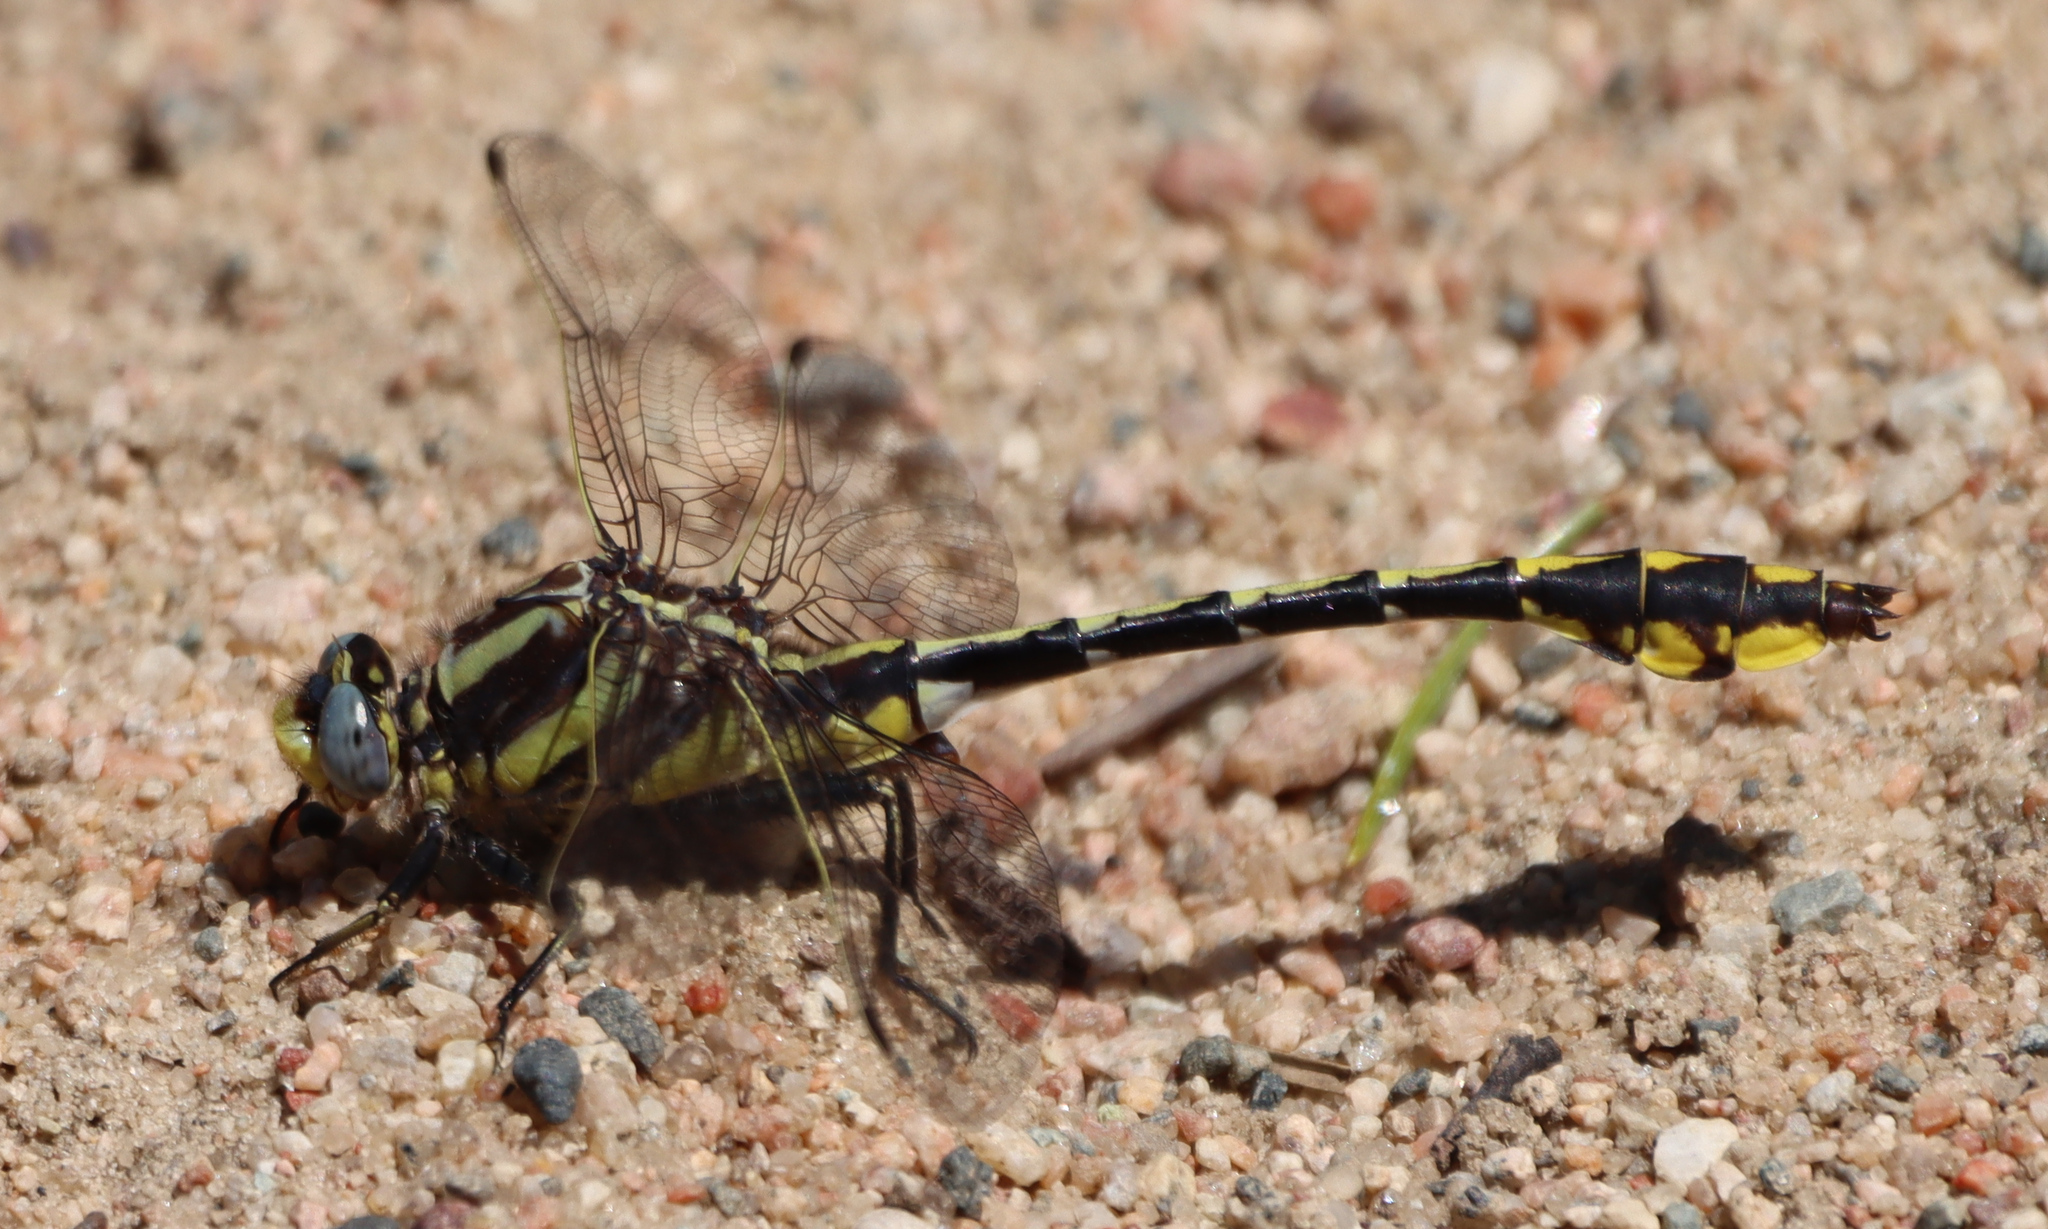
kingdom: Animalia
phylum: Arthropoda
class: Insecta
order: Odonata
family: Gomphidae
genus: Gomphurus
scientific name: Gomphurus externus
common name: Plains clubtail
